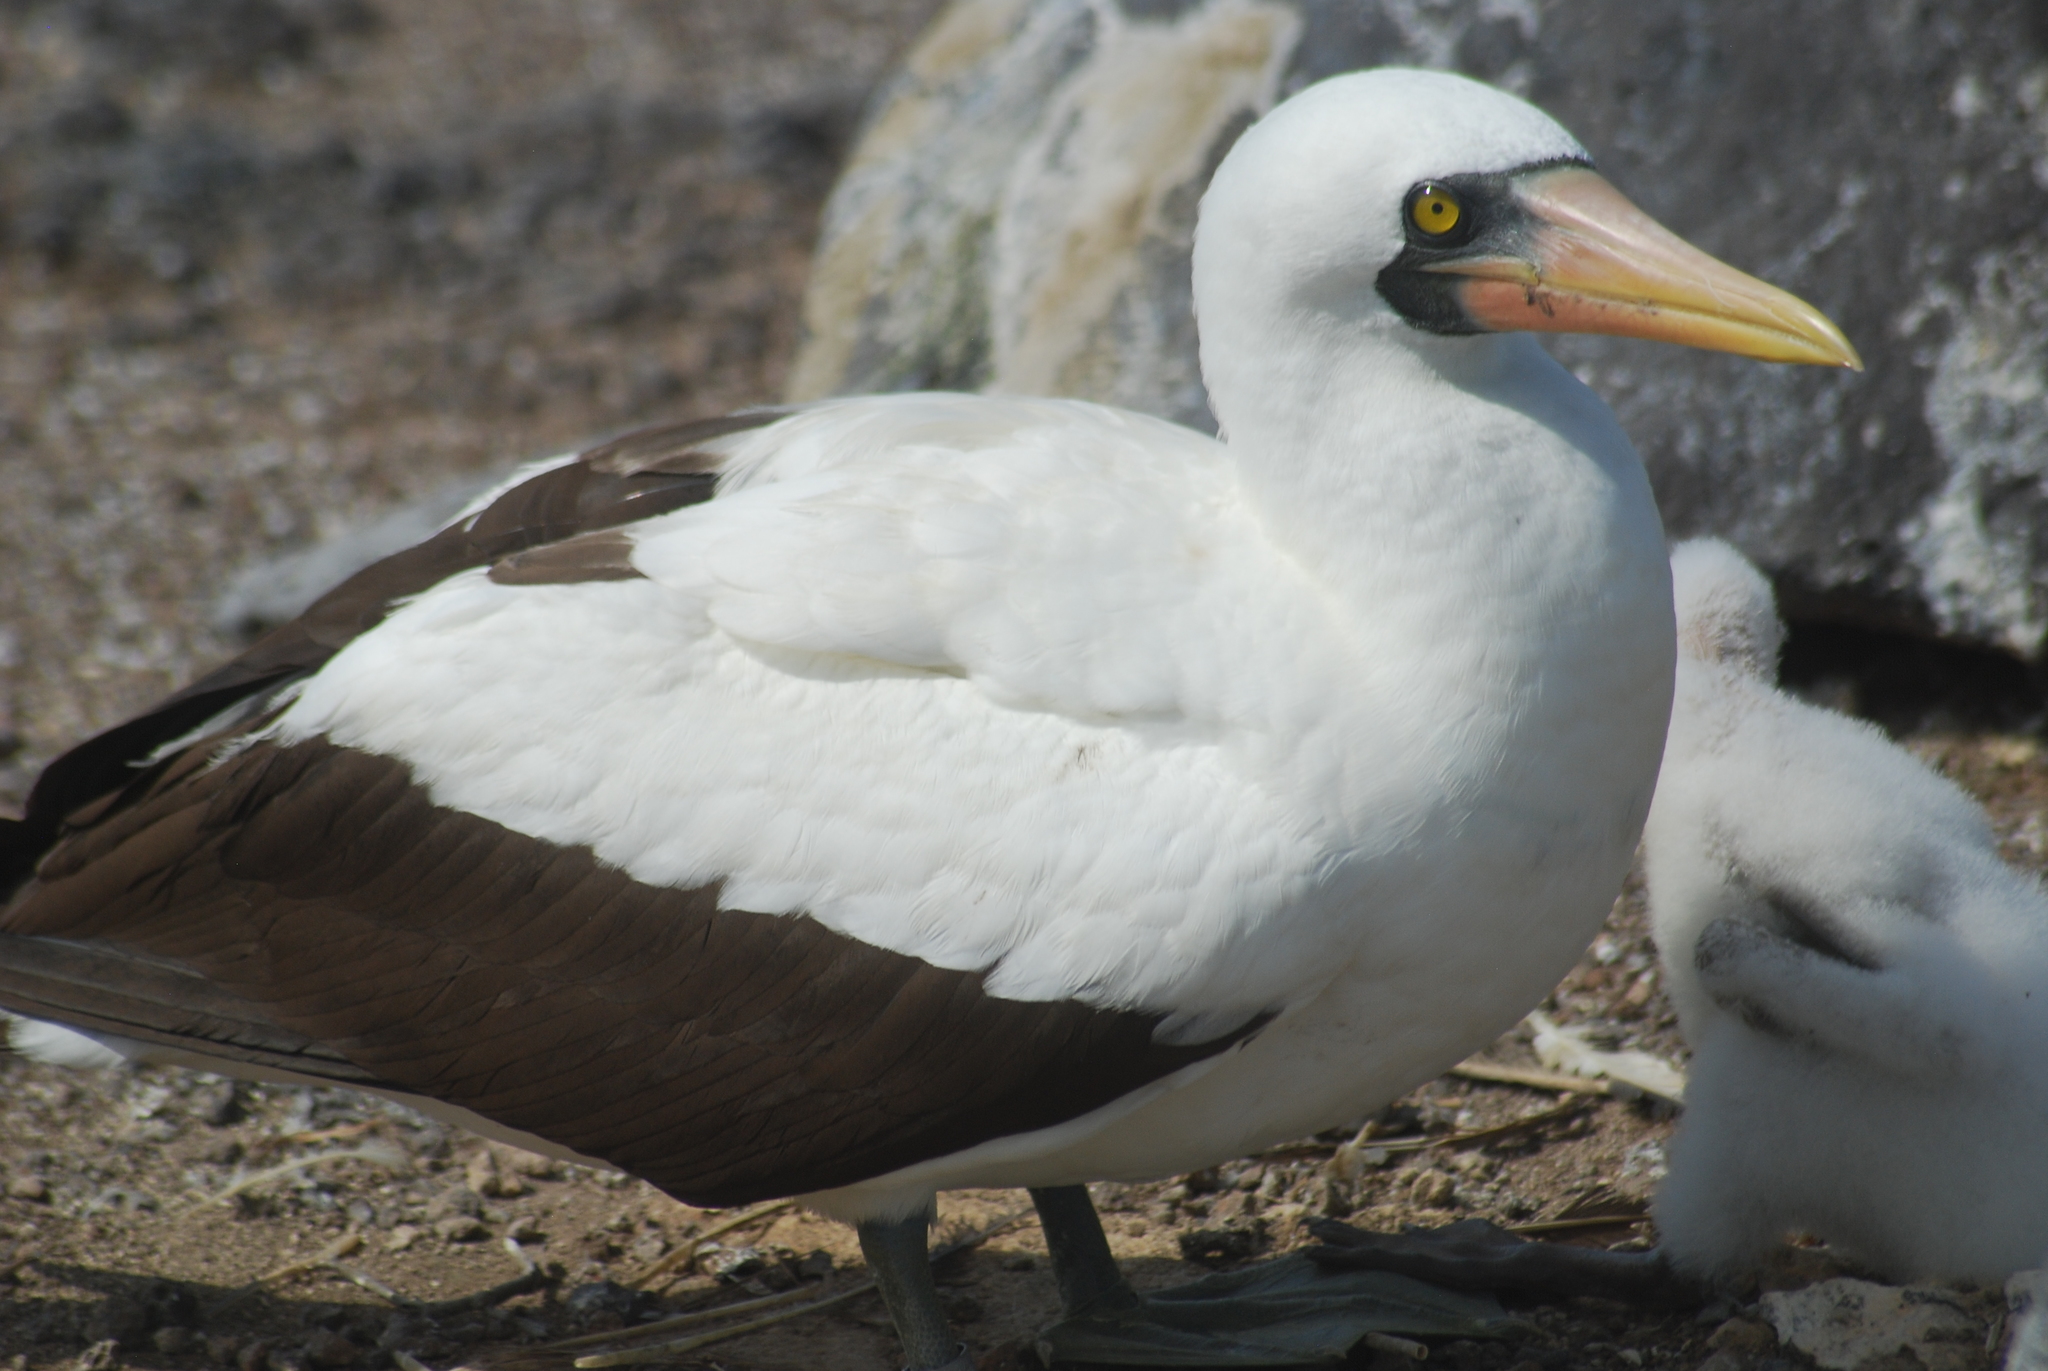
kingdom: Animalia
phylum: Chordata
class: Aves
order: Suliformes
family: Sulidae
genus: Sula
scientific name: Sula granti
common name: Nazca booby
